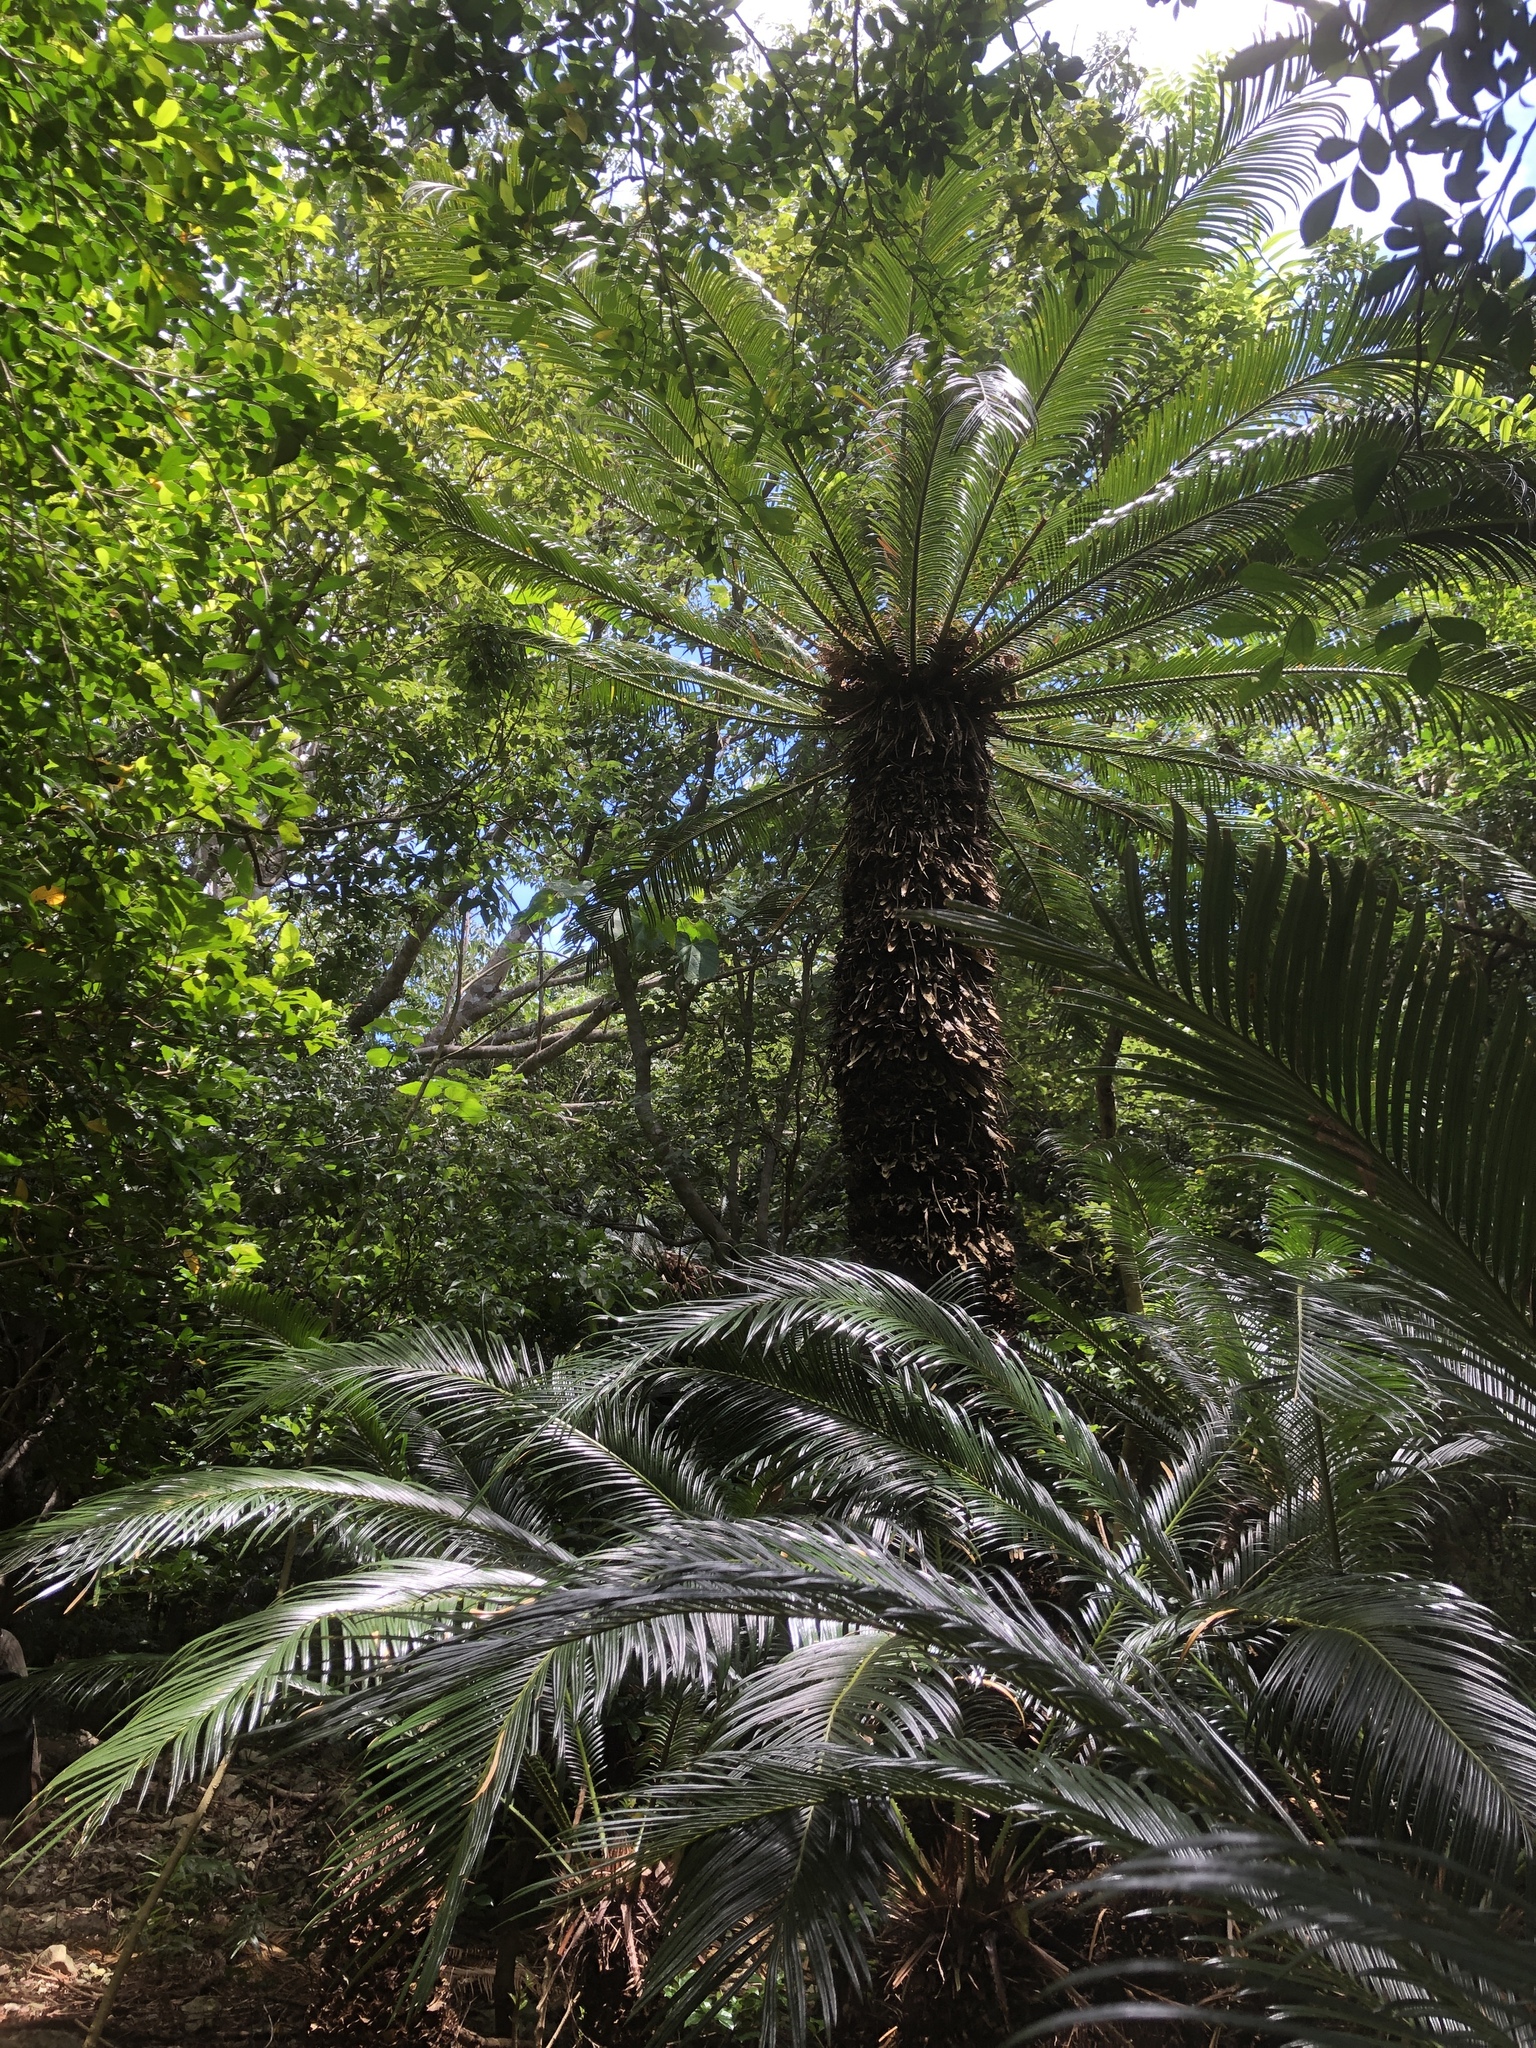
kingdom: Plantae
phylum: Tracheophyta
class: Cycadopsida
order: Cycadales
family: Cycadaceae
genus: Cycas
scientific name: Cycas revoluta
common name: Sago palm
